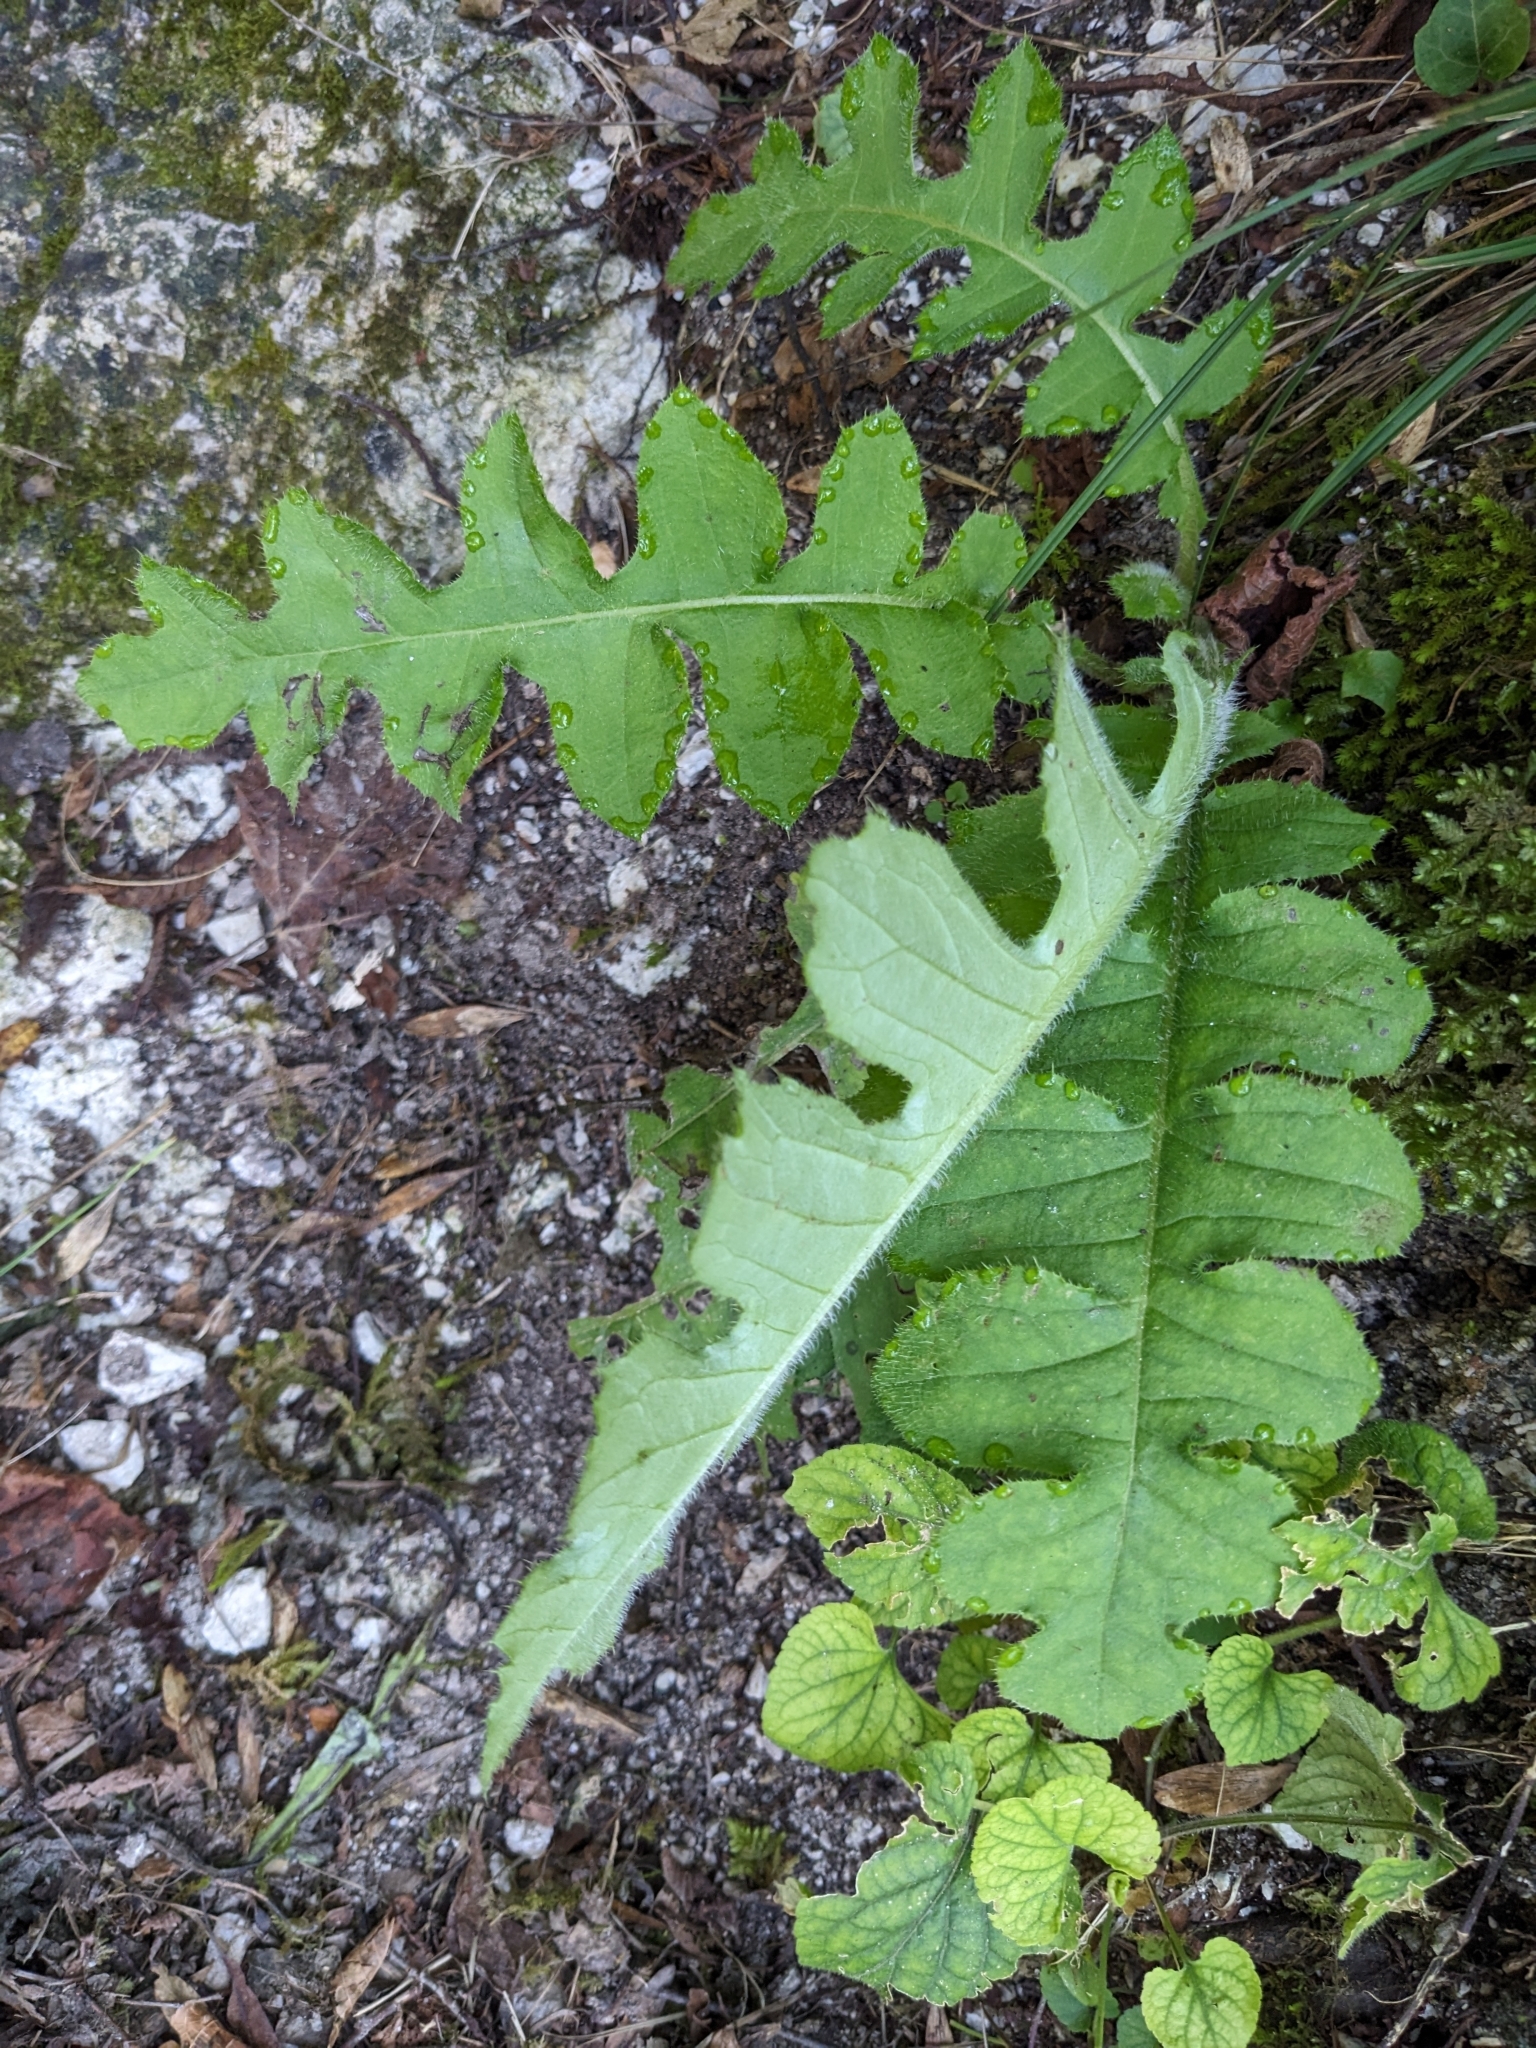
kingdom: Plantae
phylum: Tracheophyta
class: Magnoliopsida
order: Asterales
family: Asteraceae
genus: Cirsium
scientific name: Cirsium erisithales
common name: Yellow thistle
